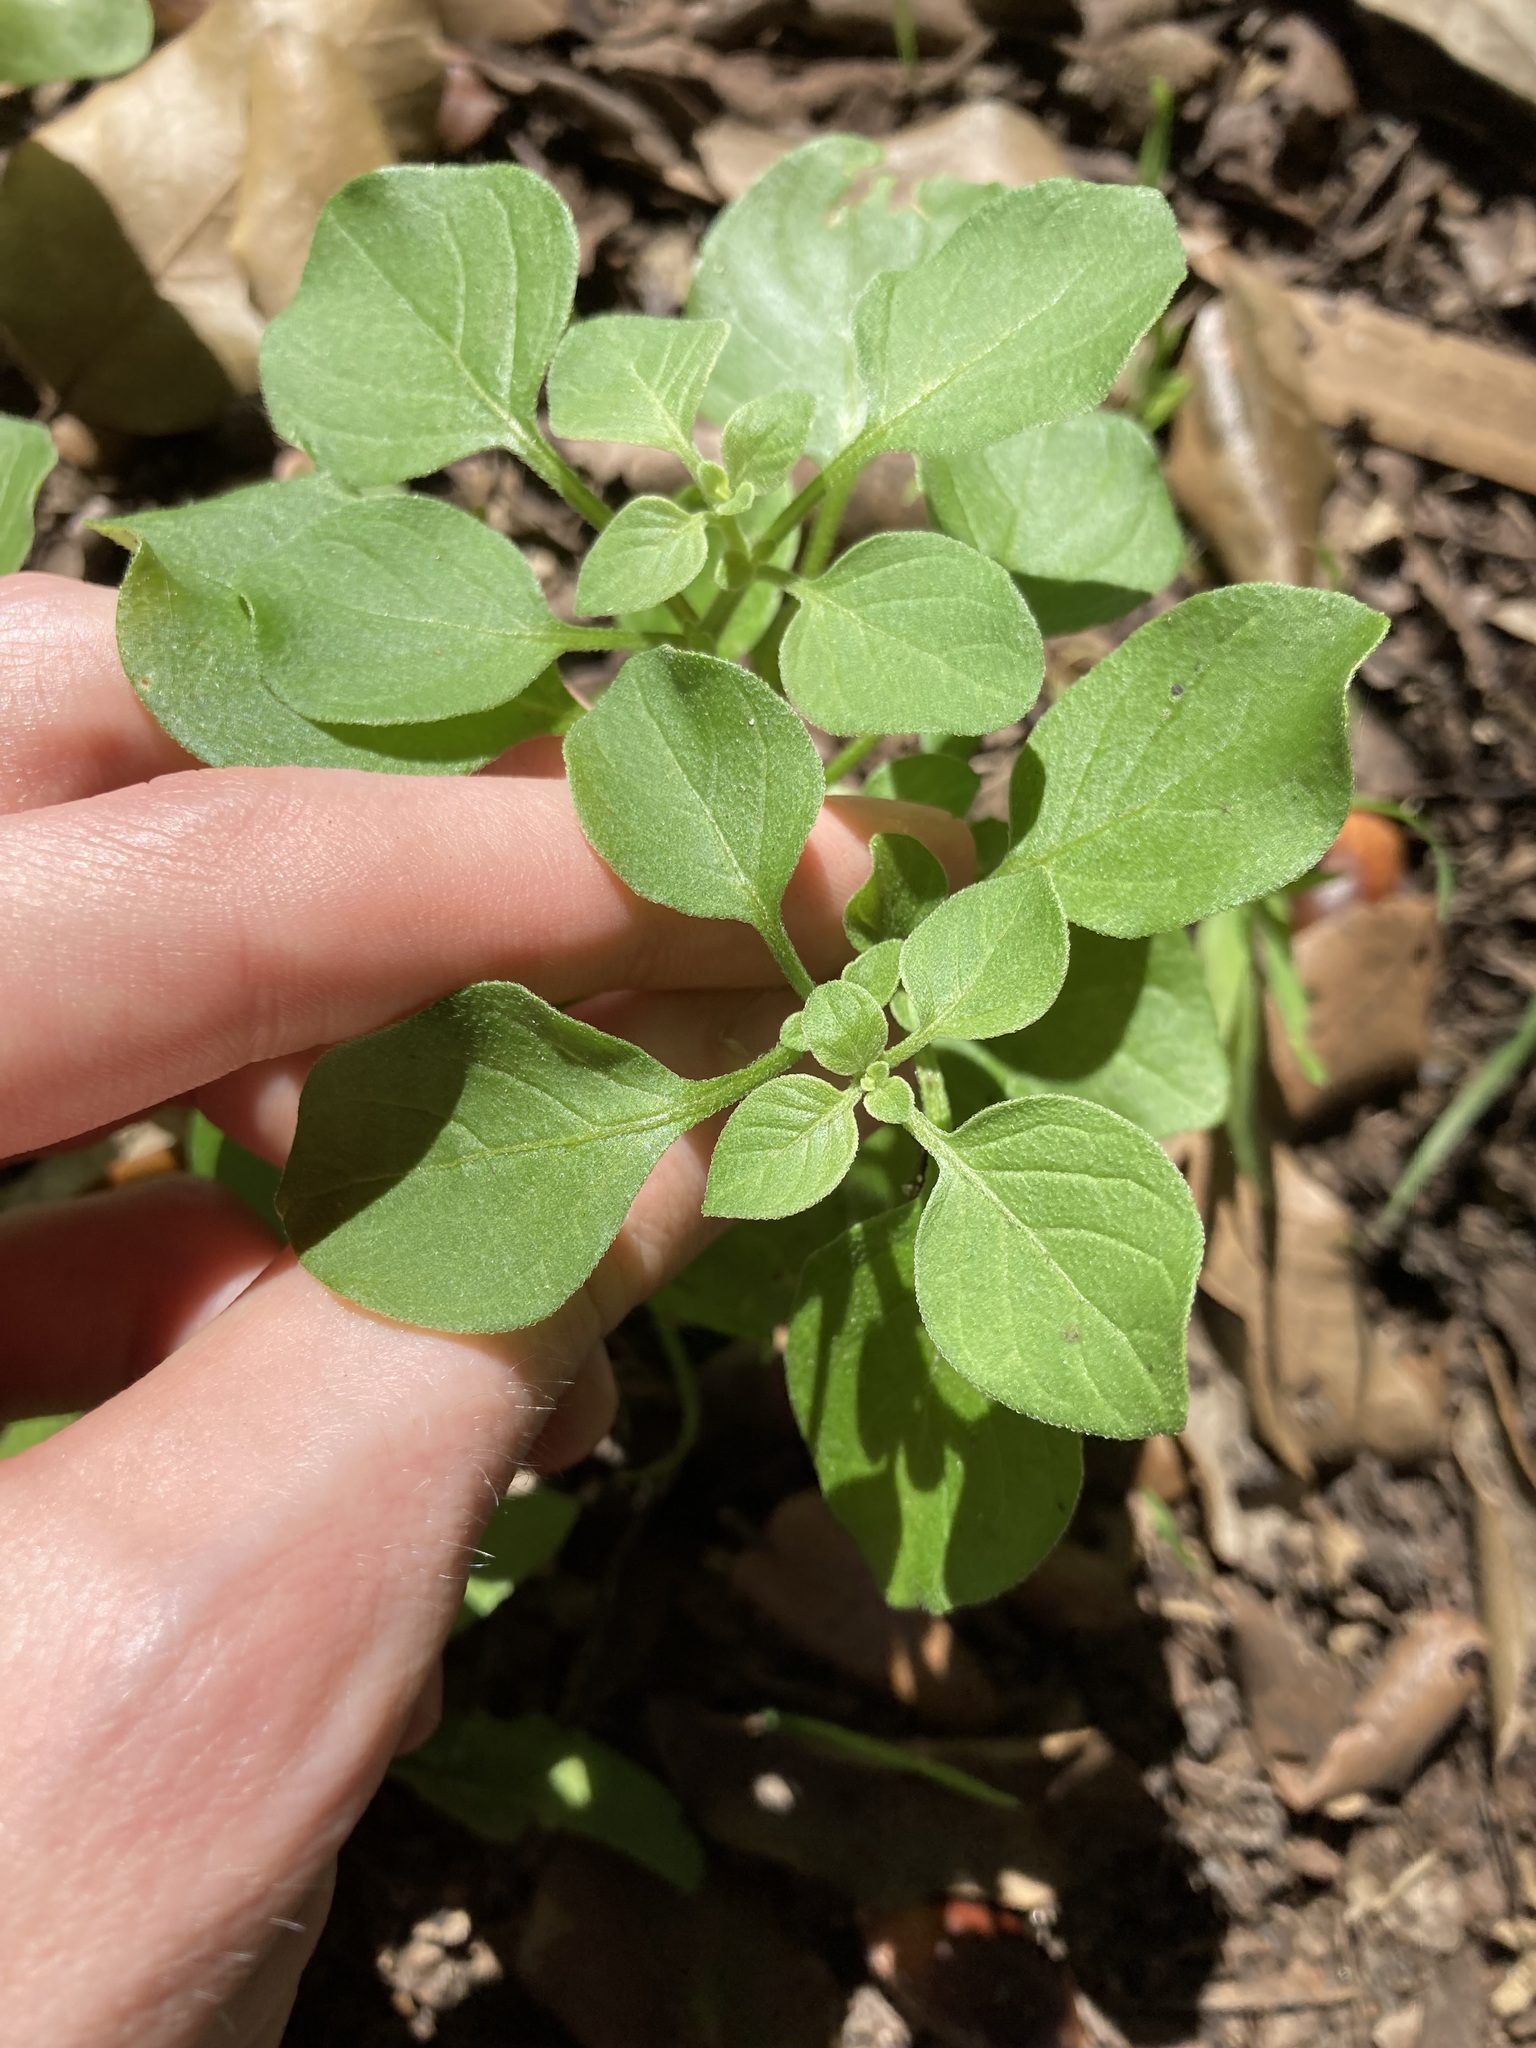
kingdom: Plantae
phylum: Tracheophyta
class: Magnoliopsida
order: Solanales
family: Solanaceae
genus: Salpichroa
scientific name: Salpichroa origanifolia
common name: Lily-of-the-valley-vine
